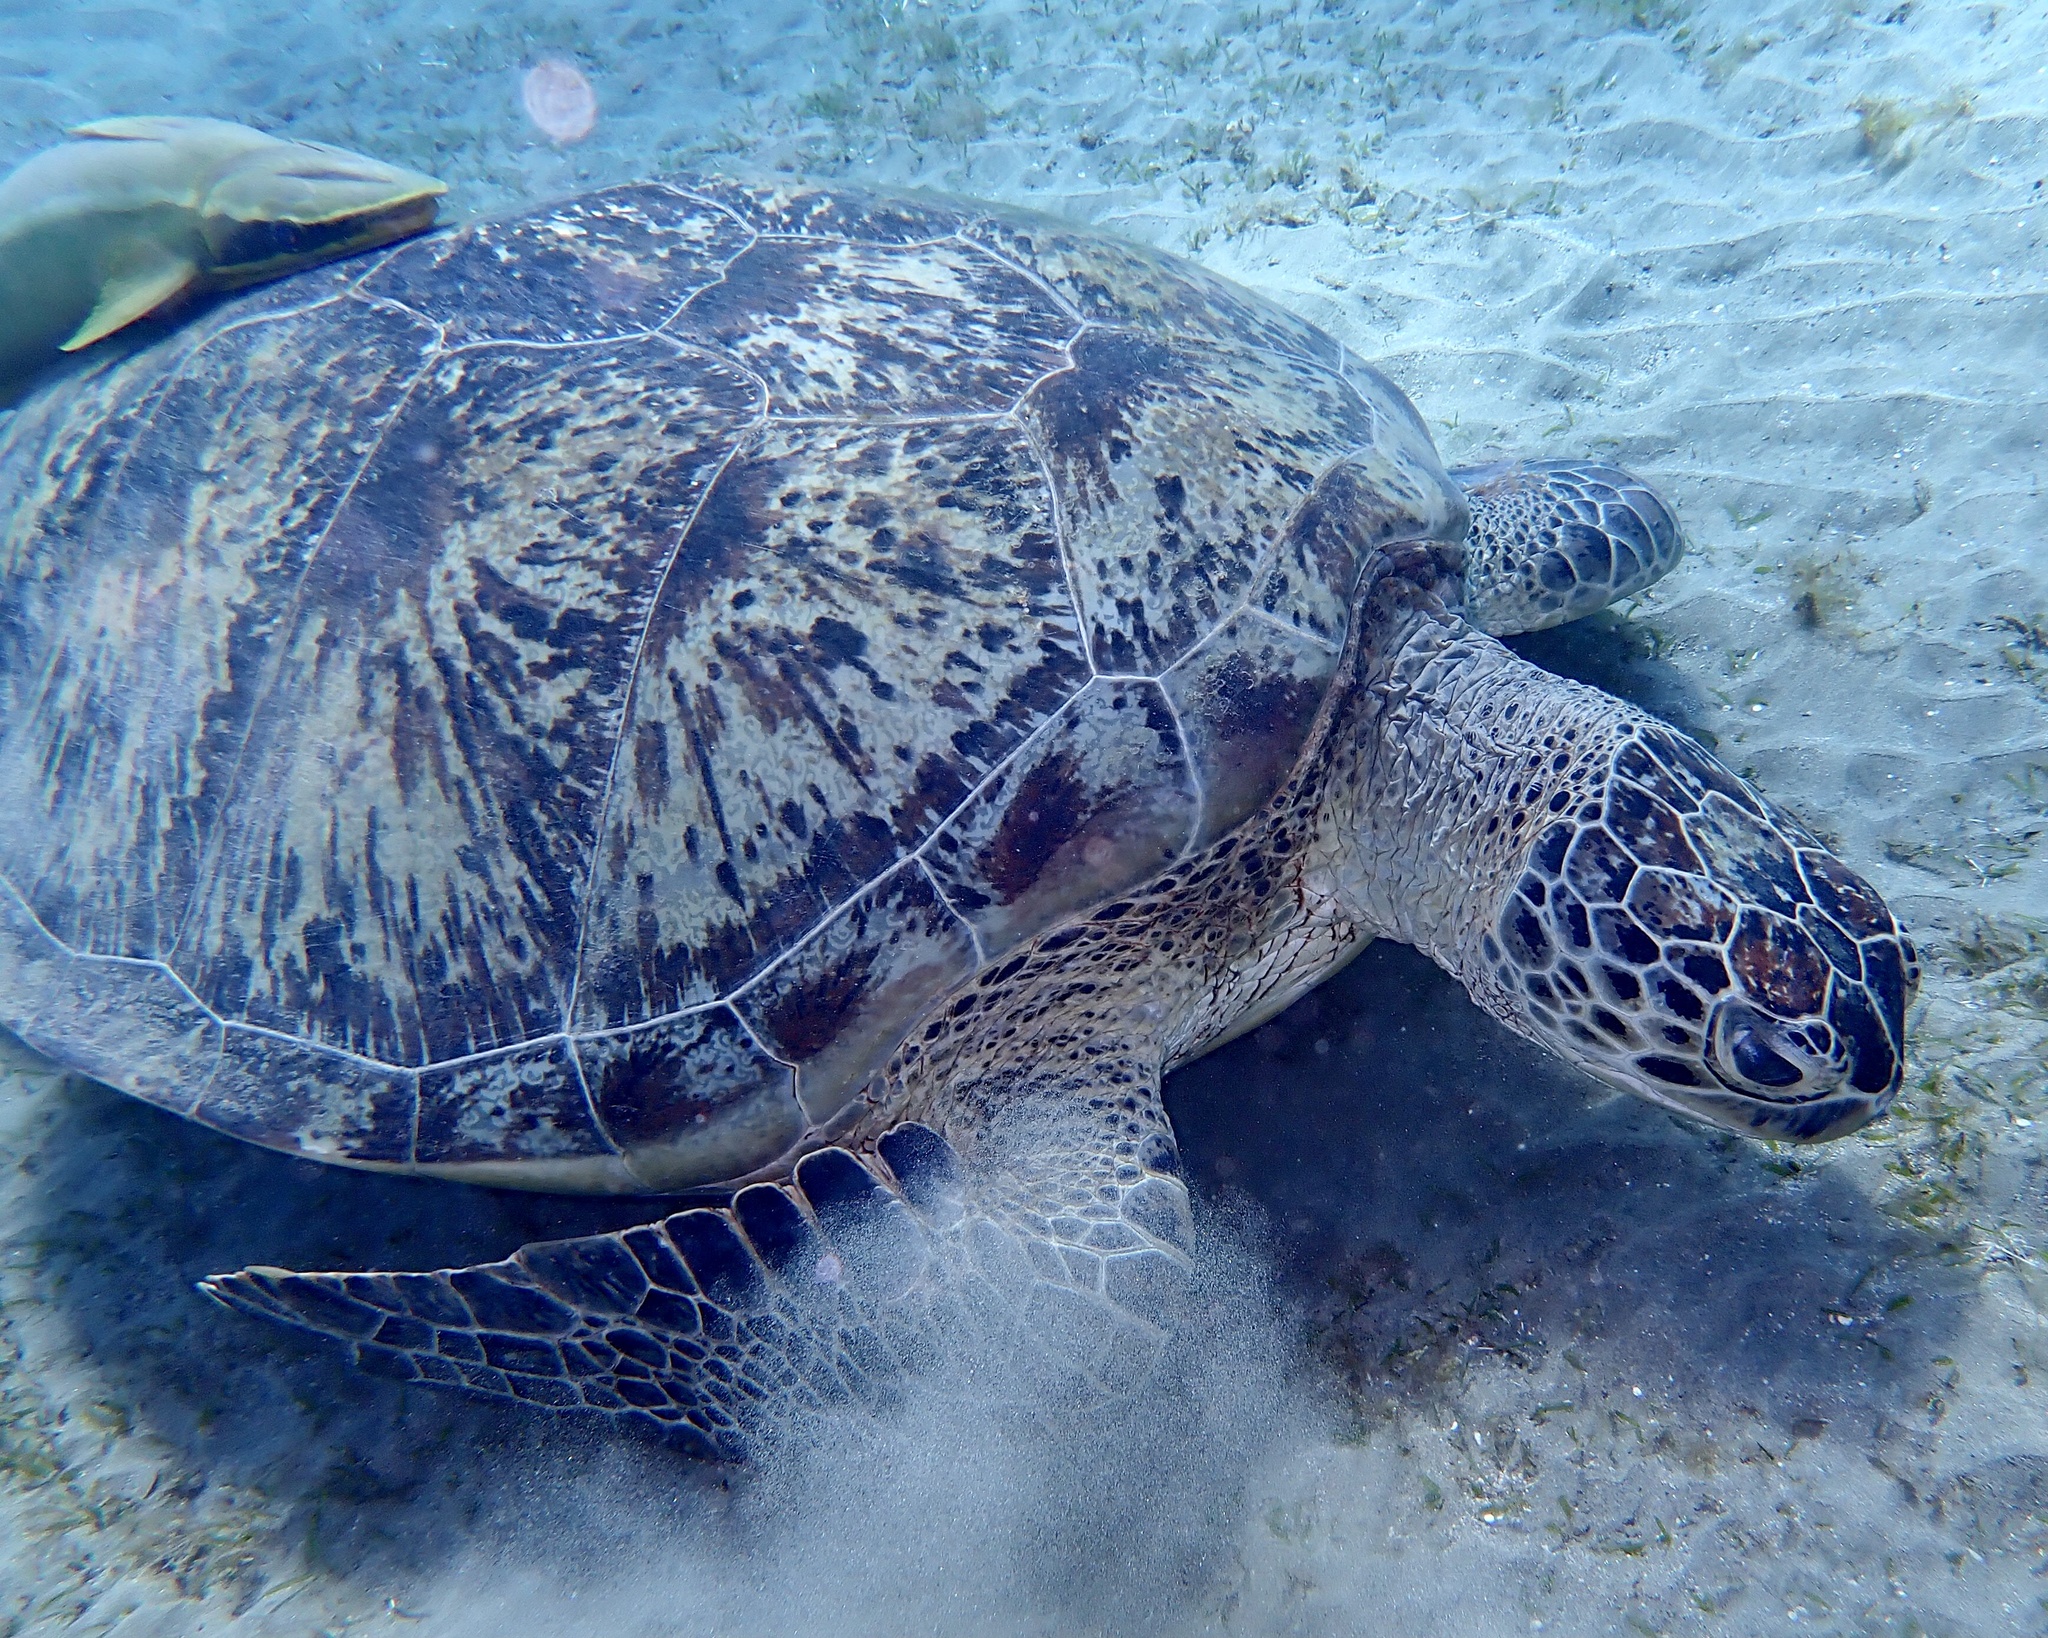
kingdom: Animalia
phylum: Chordata
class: Testudines
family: Cheloniidae
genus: Chelonia
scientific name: Chelonia mydas
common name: Green turtle
